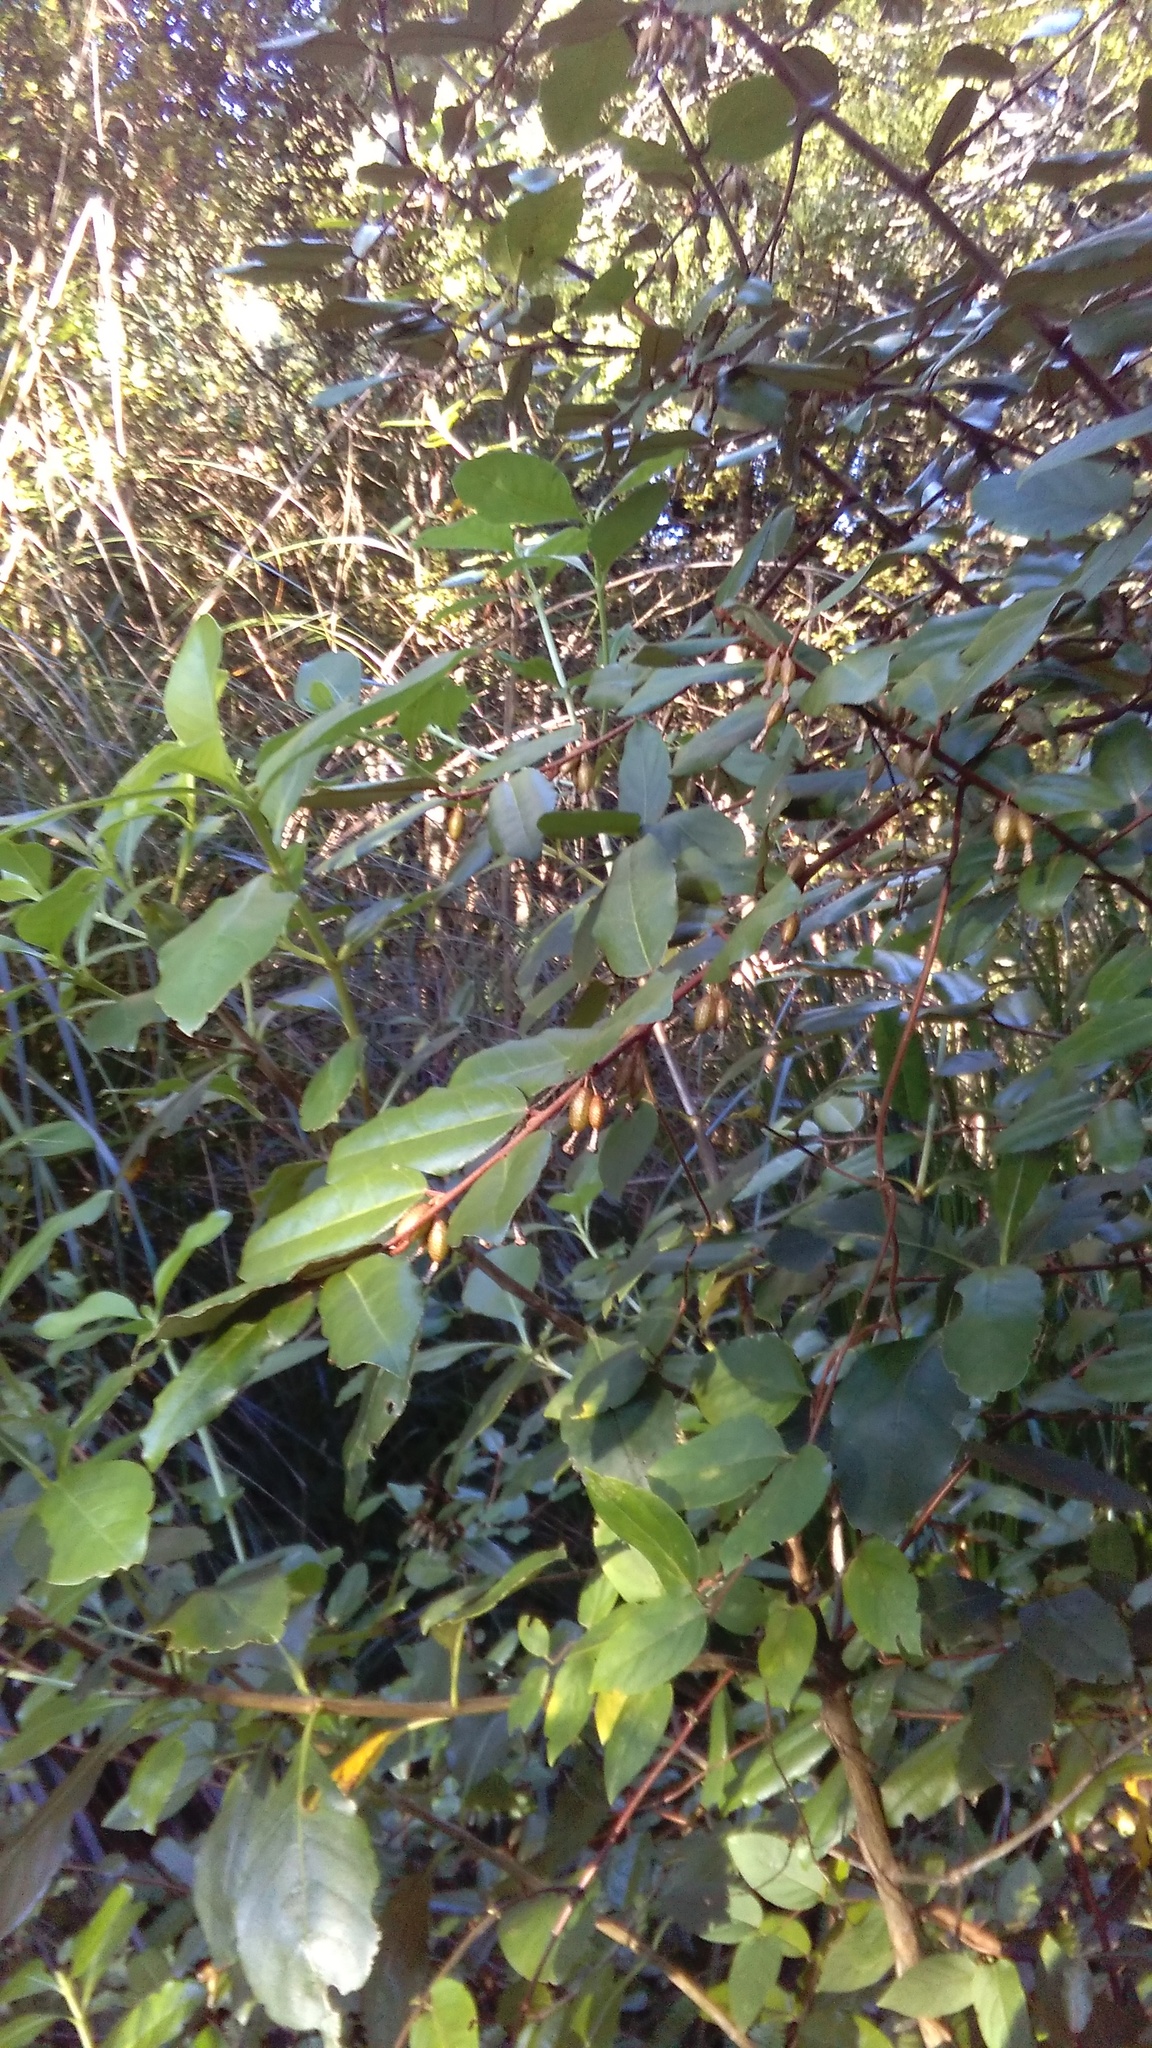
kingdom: Plantae
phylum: Tracheophyta
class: Magnoliopsida
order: Rosales
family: Elaeagnaceae
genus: Elaeagnus
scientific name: Elaeagnus pungens
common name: Spiny oleaster
